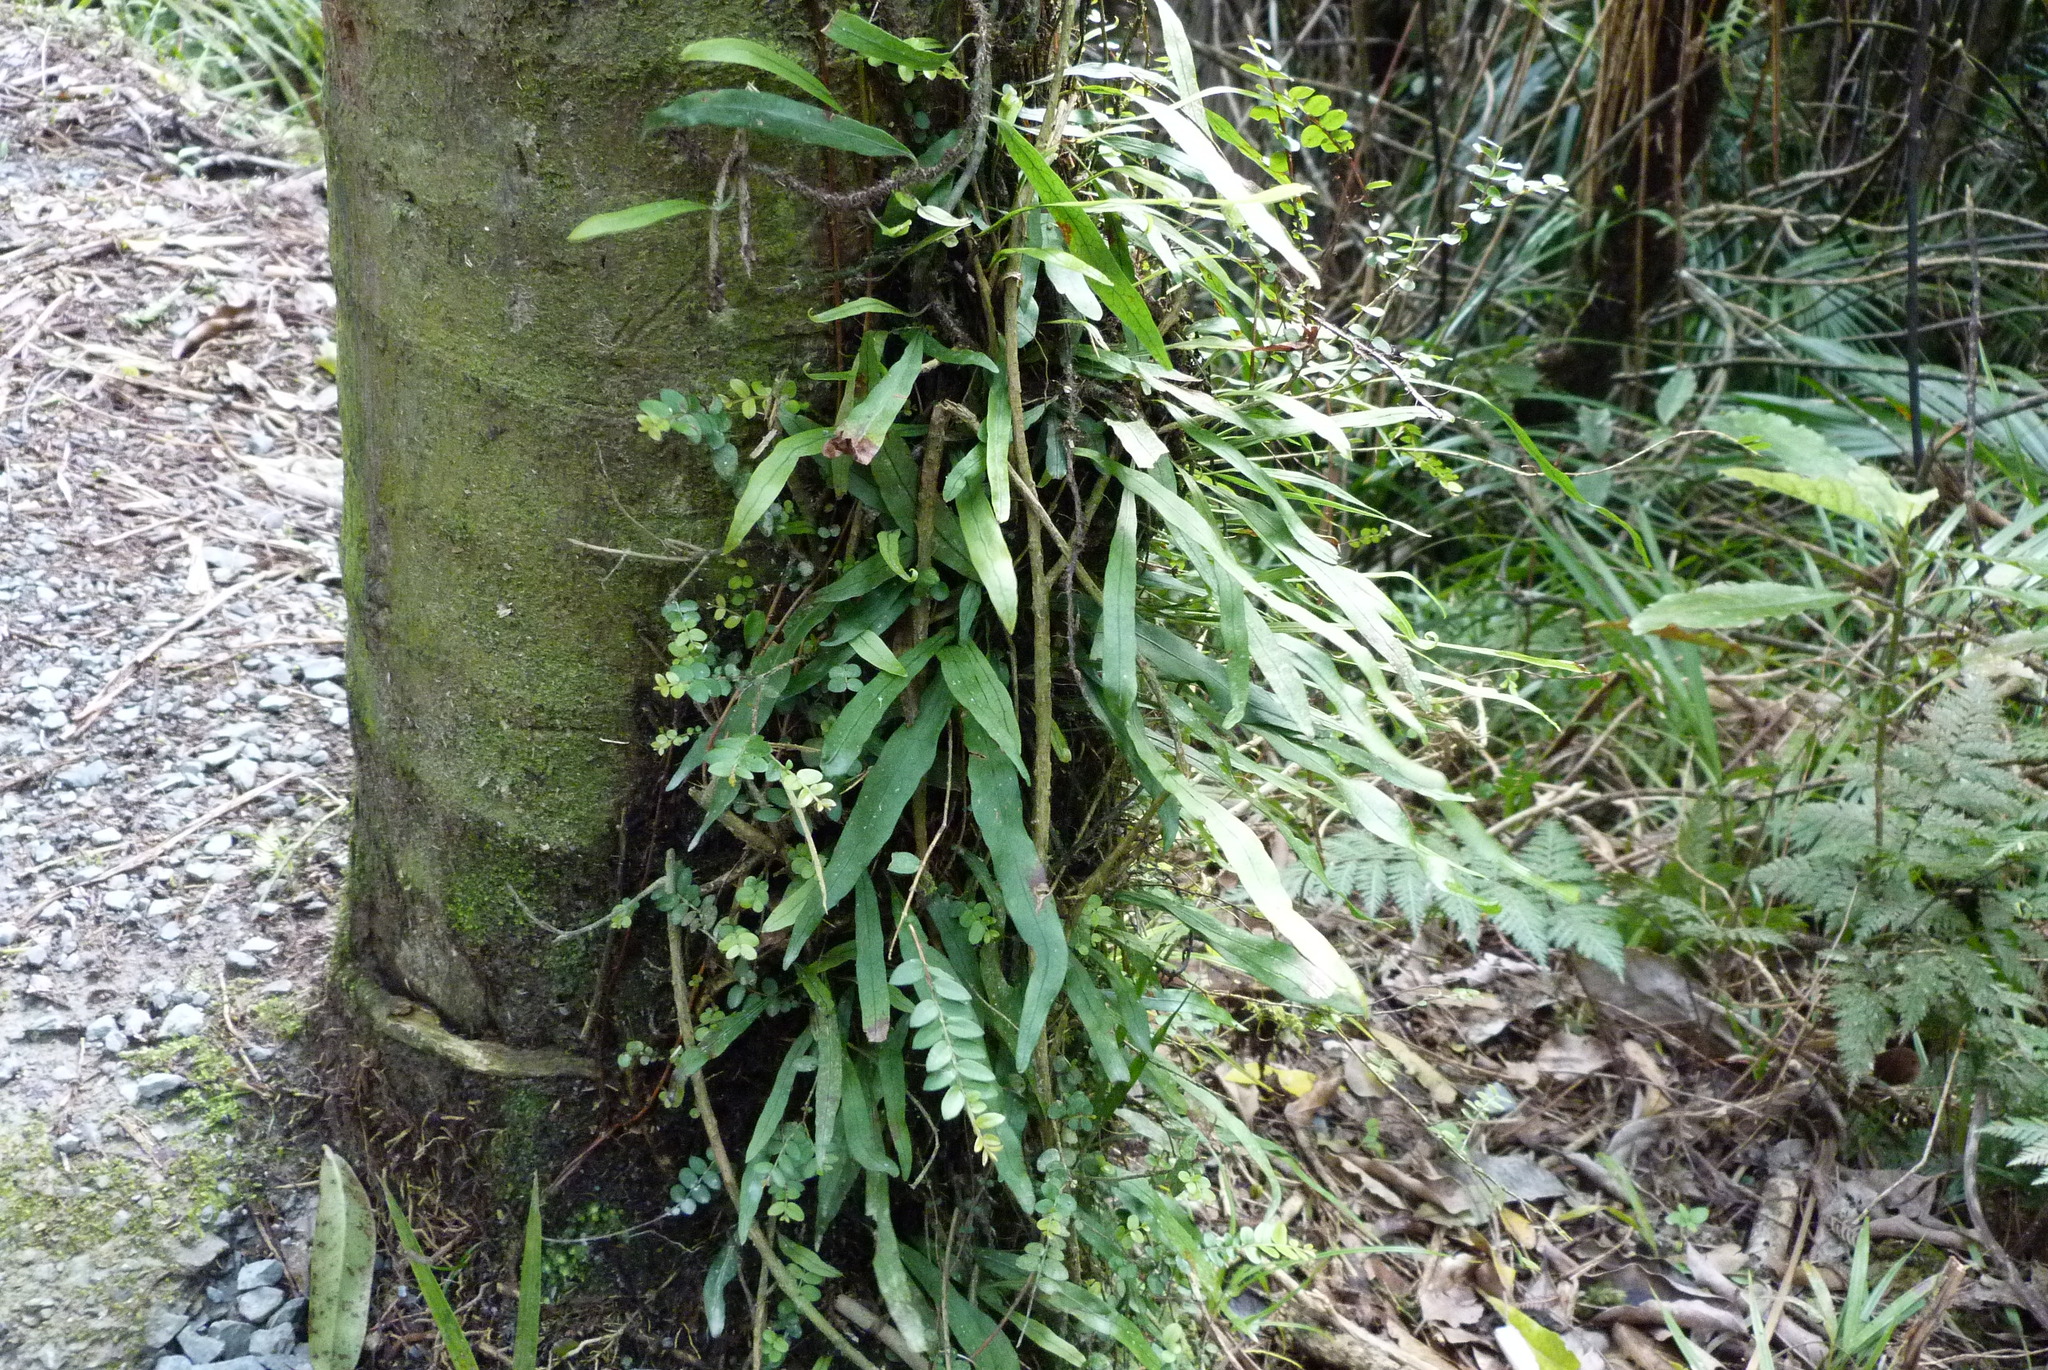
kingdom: Plantae
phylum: Tracheophyta
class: Polypodiopsida
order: Polypodiales
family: Polypodiaceae
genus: Lecanopteris
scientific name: Lecanopteris scandens
